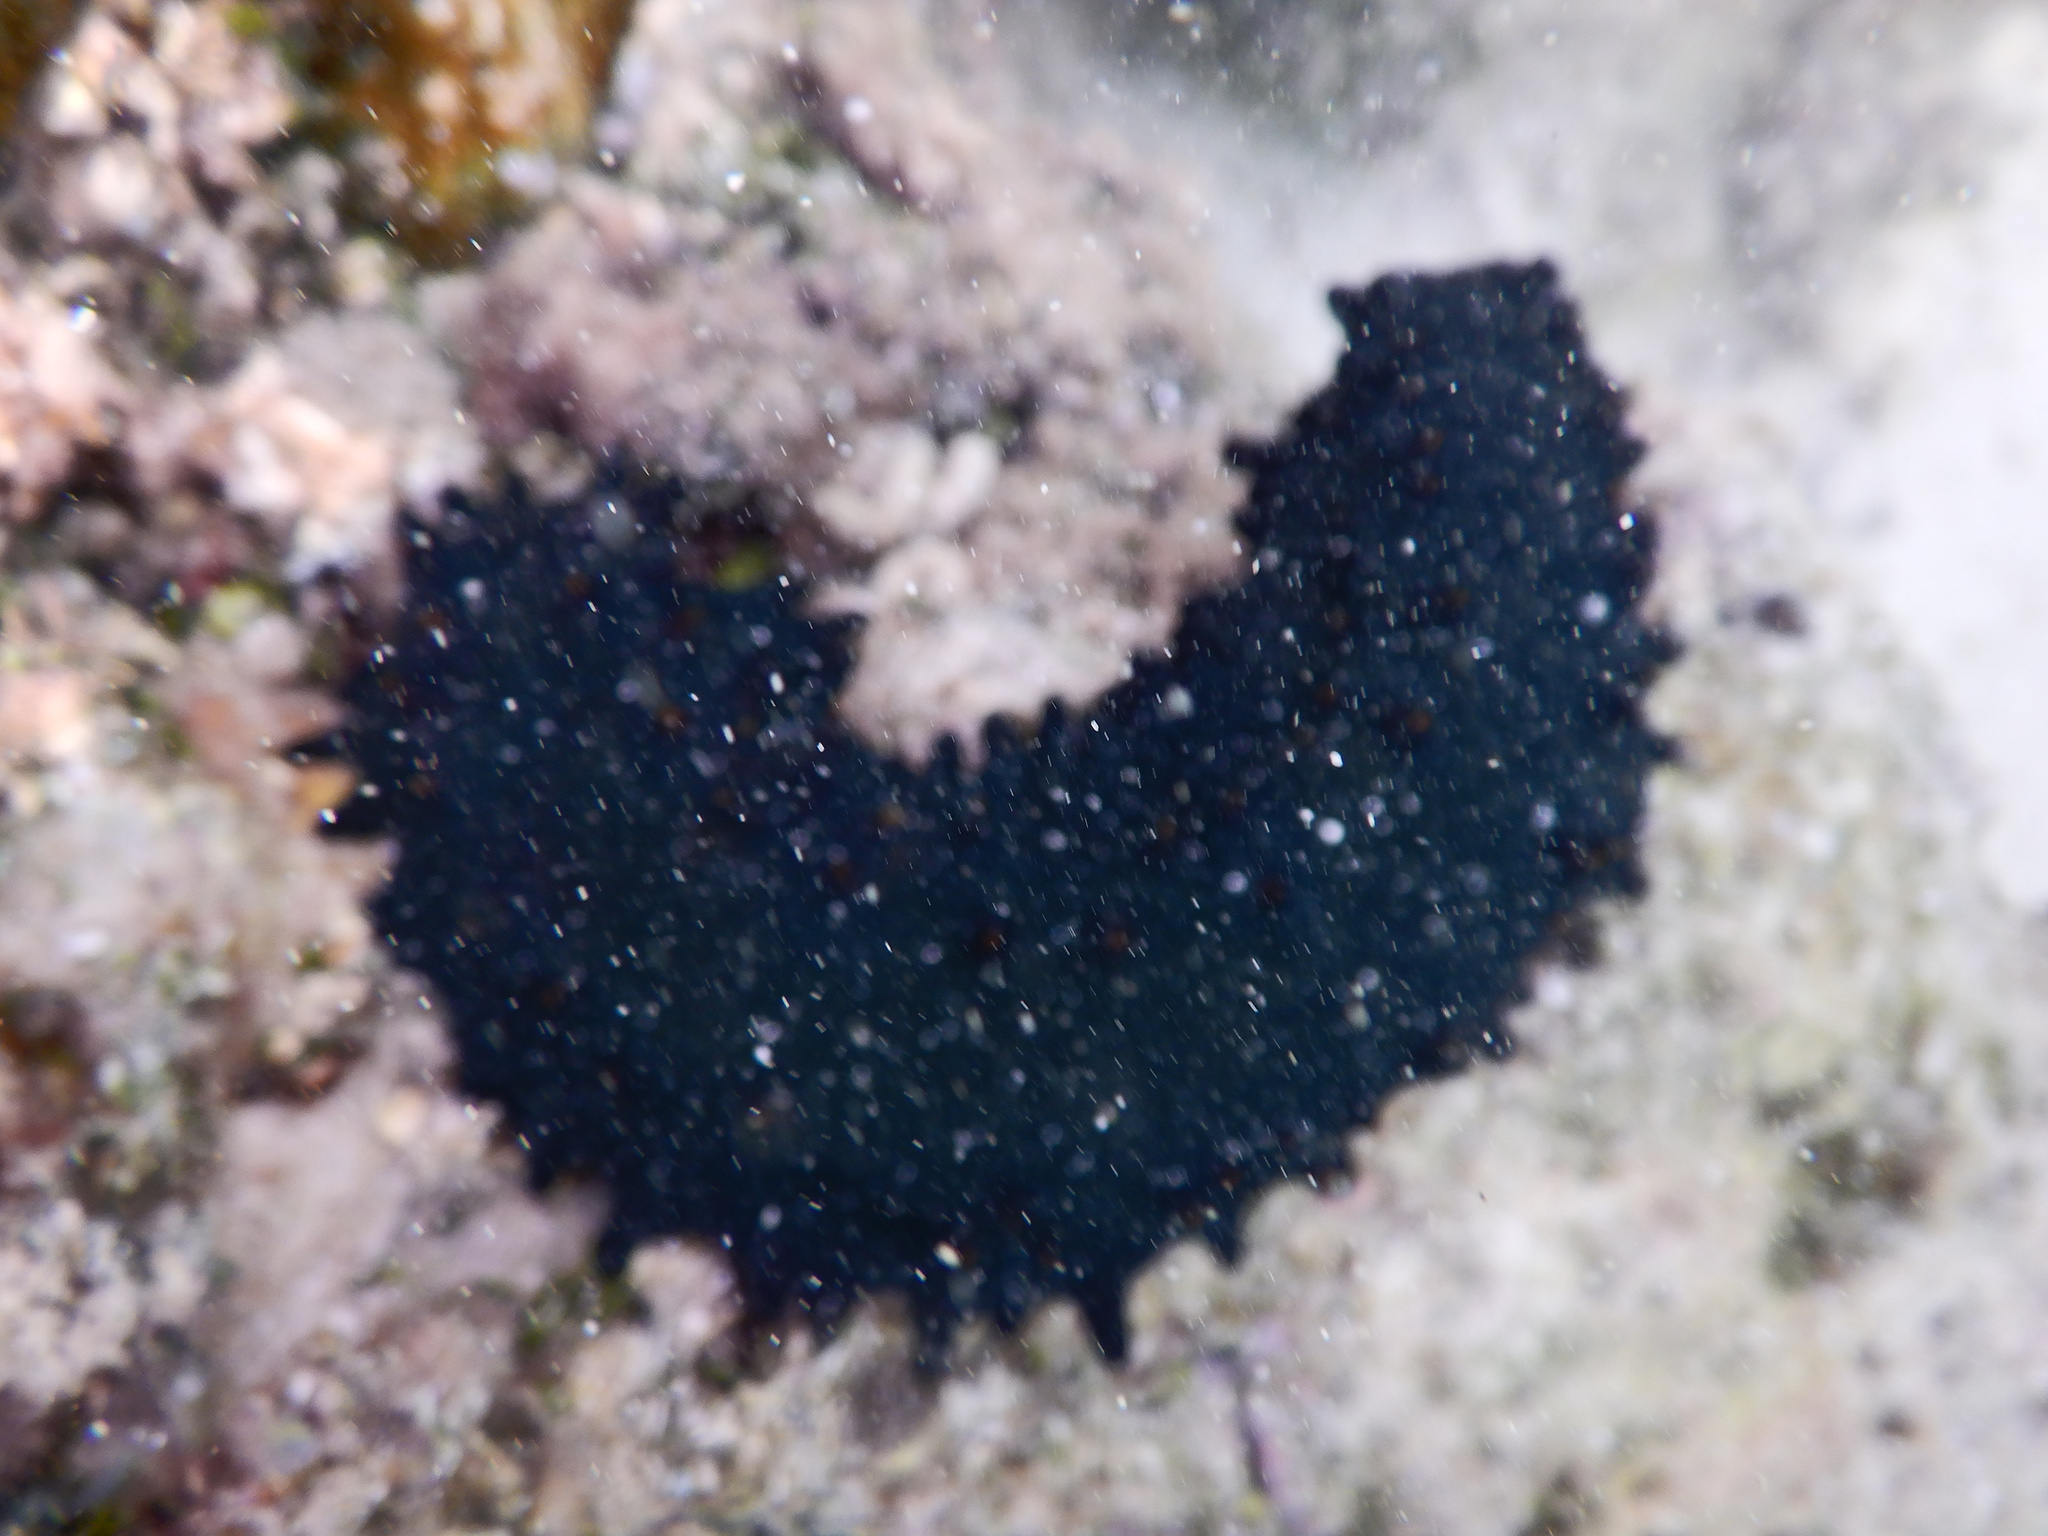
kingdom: Animalia
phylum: Echinodermata
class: Holothuroidea
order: Synallactida
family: Stichopodidae
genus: Stichopus
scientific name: Stichopus chloronotus
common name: Greenfish
